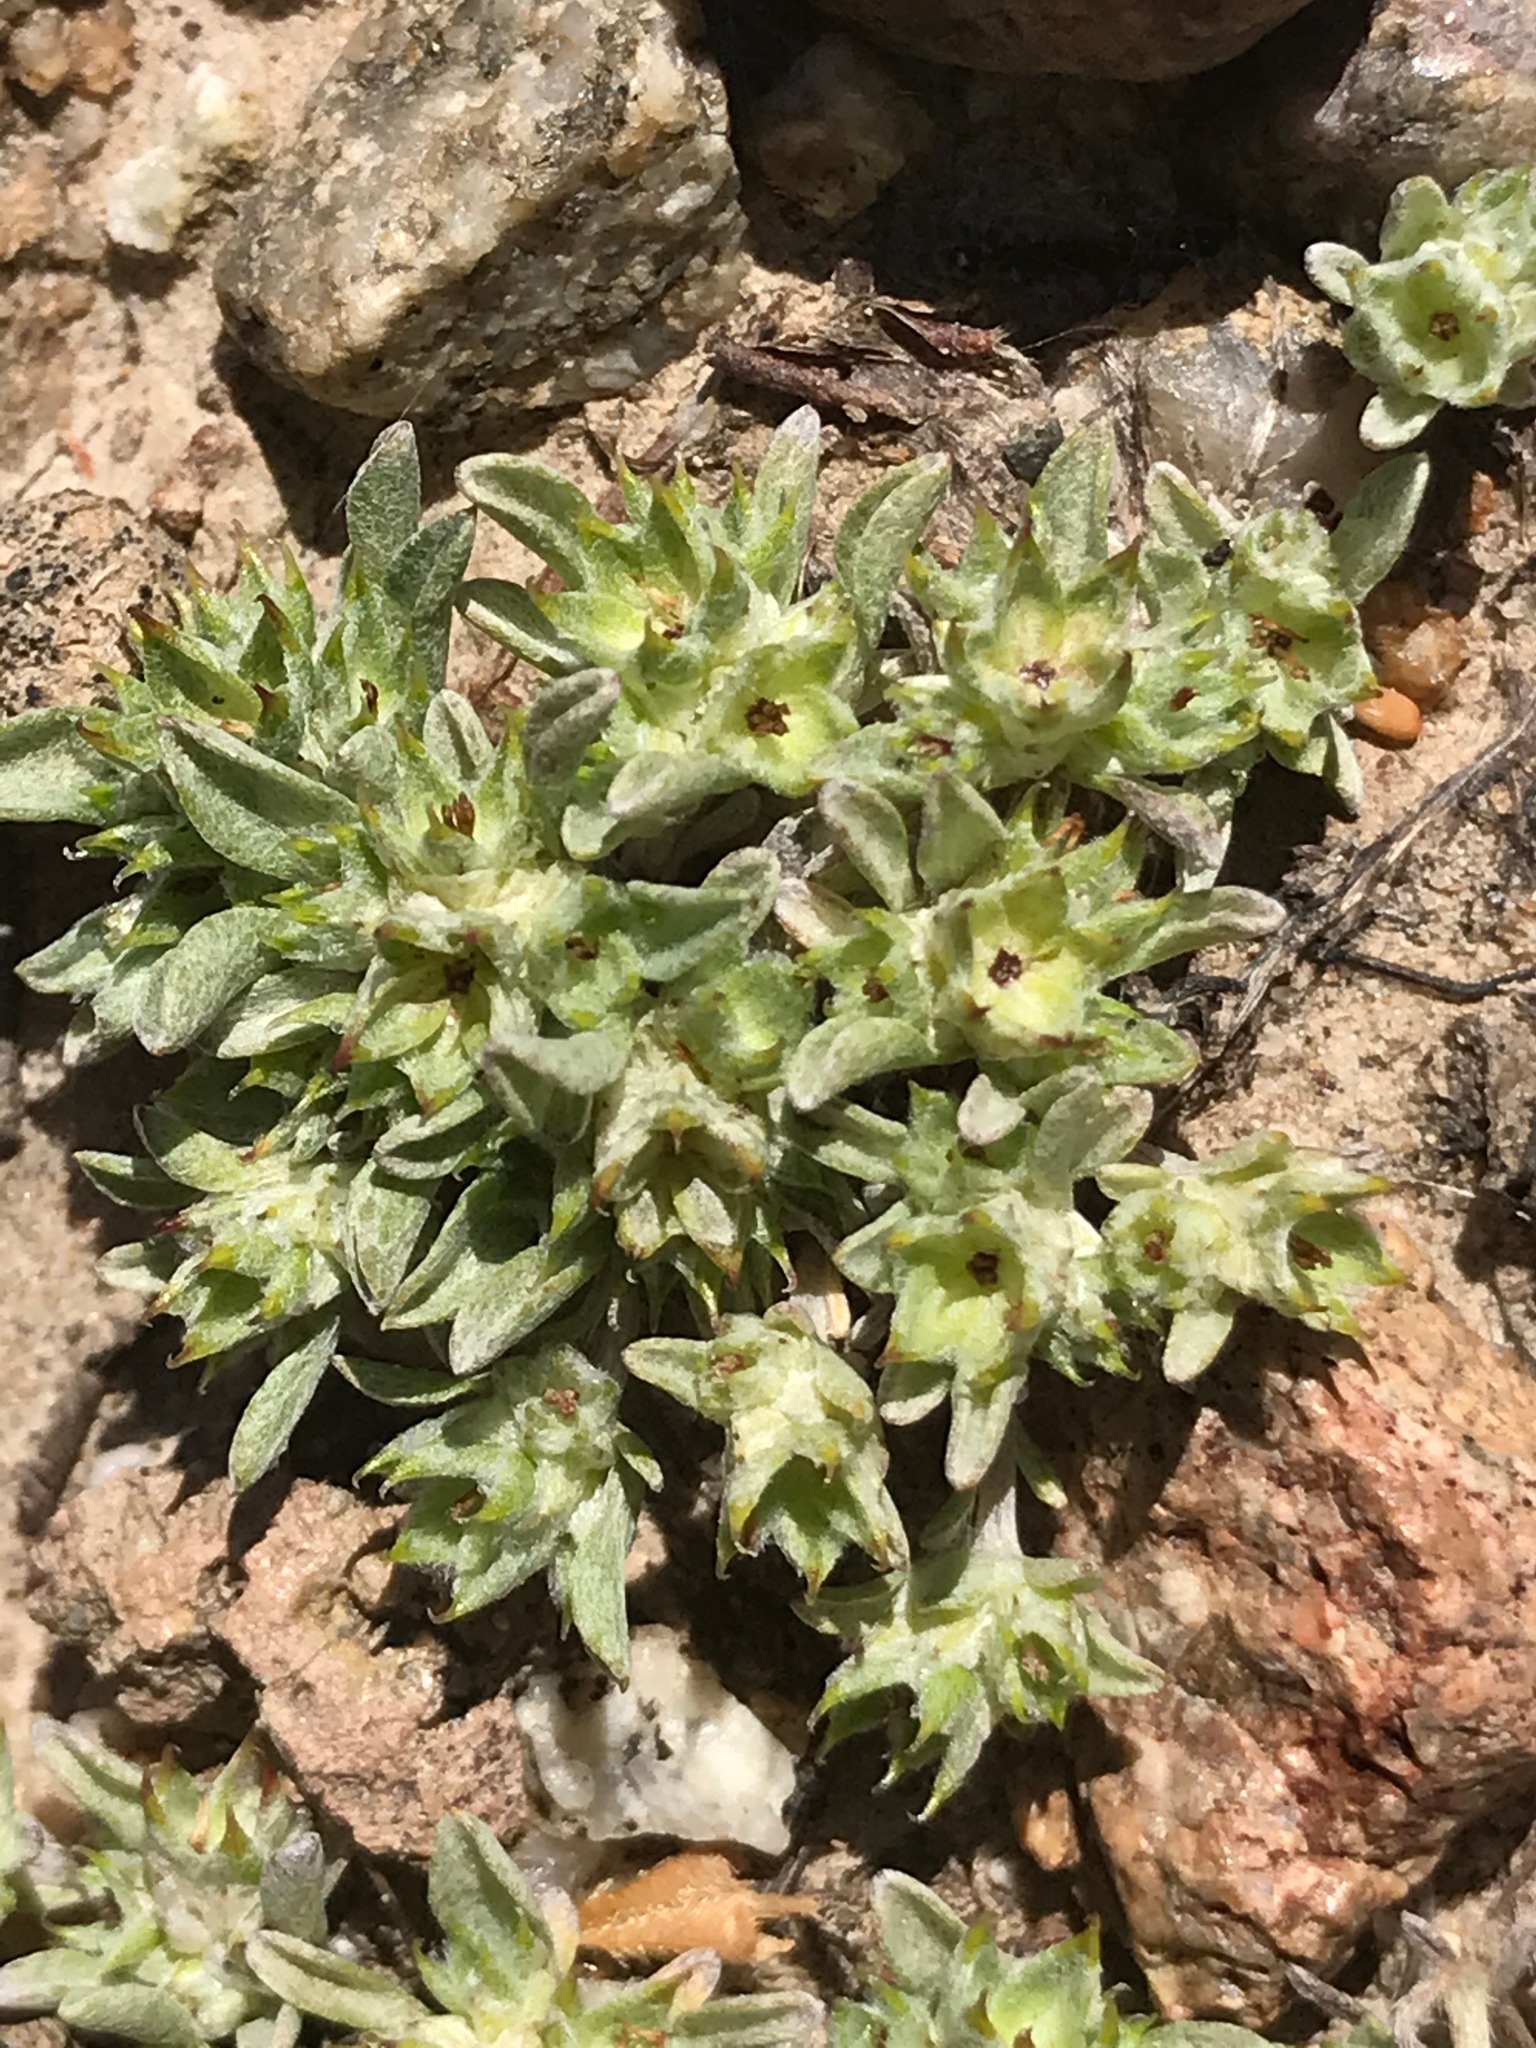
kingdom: Plantae
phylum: Tracheophyta
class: Magnoliopsida
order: Asterales
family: Asteraceae
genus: Ancistrocarphus
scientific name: Ancistrocarphus filagineus
